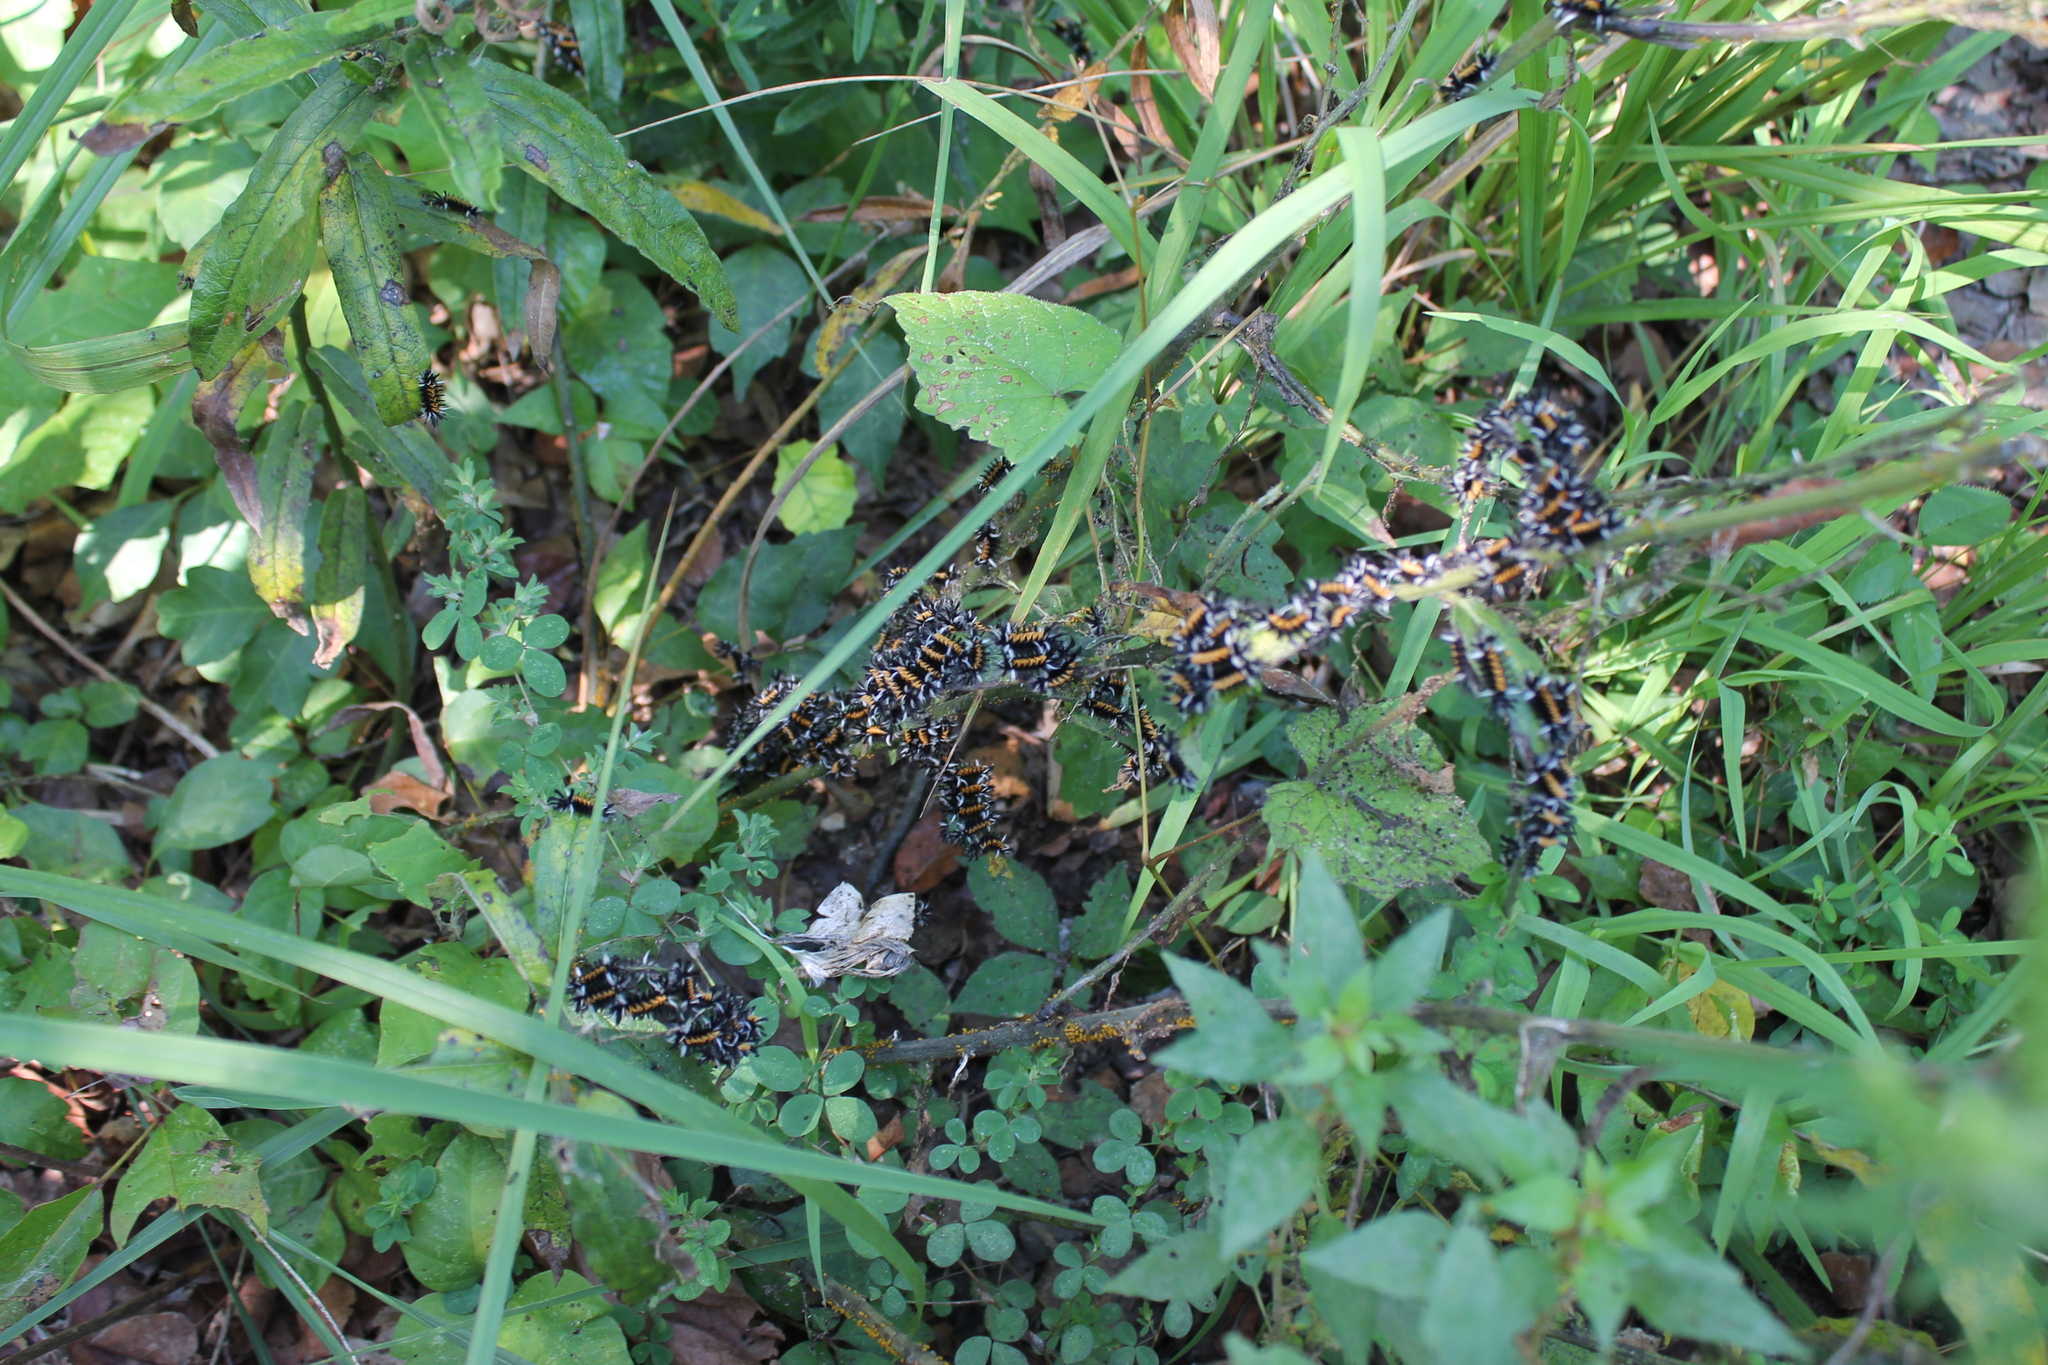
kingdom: Animalia
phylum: Arthropoda
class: Insecta
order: Lepidoptera
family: Erebidae
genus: Euchaetes
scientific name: Euchaetes egle
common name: Milkweed tussock moth
